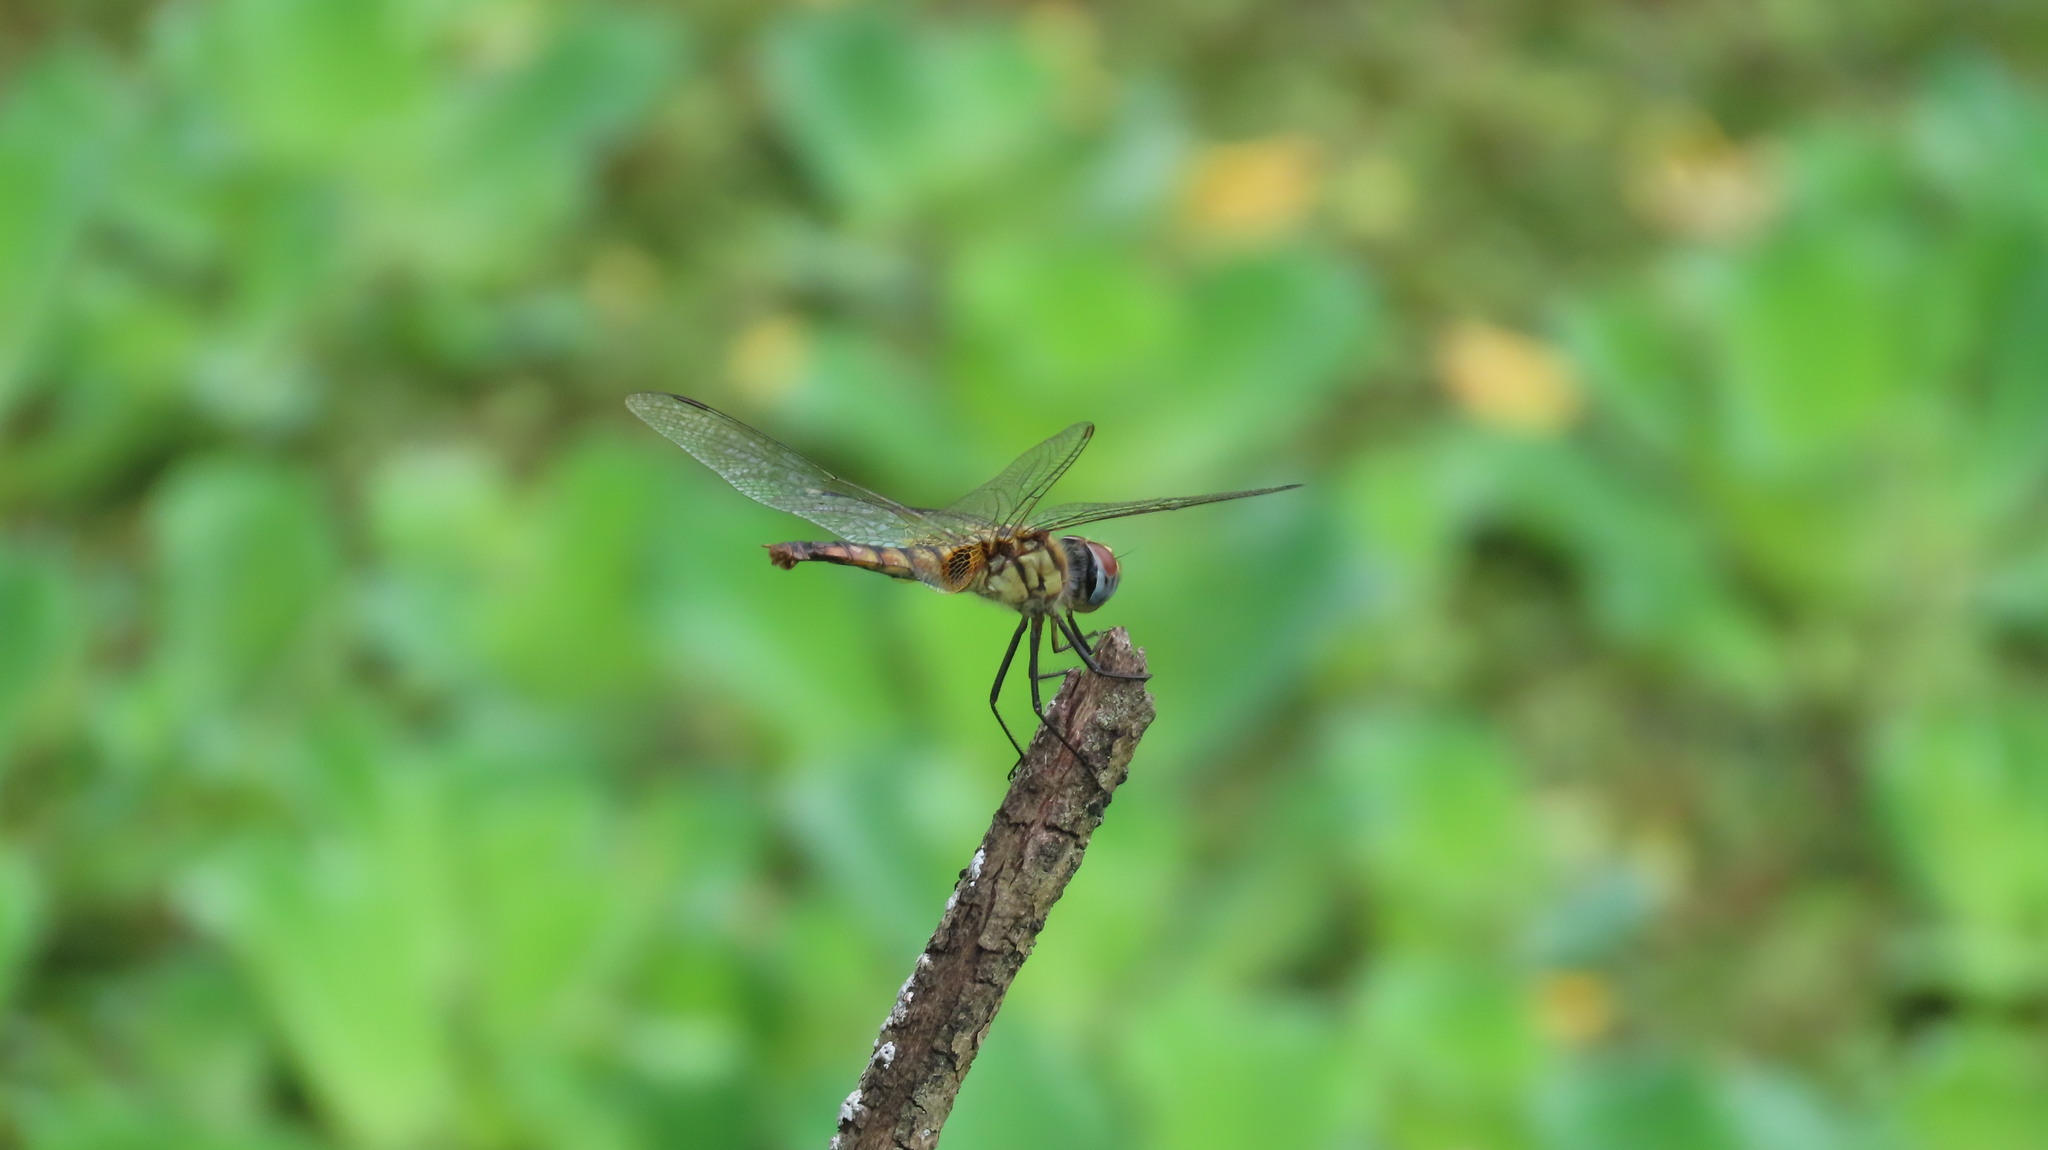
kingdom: Animalia
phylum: Arthropoda
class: Insecta
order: Odonata
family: Libellulidae
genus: Urothemis
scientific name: Urothemis signata
